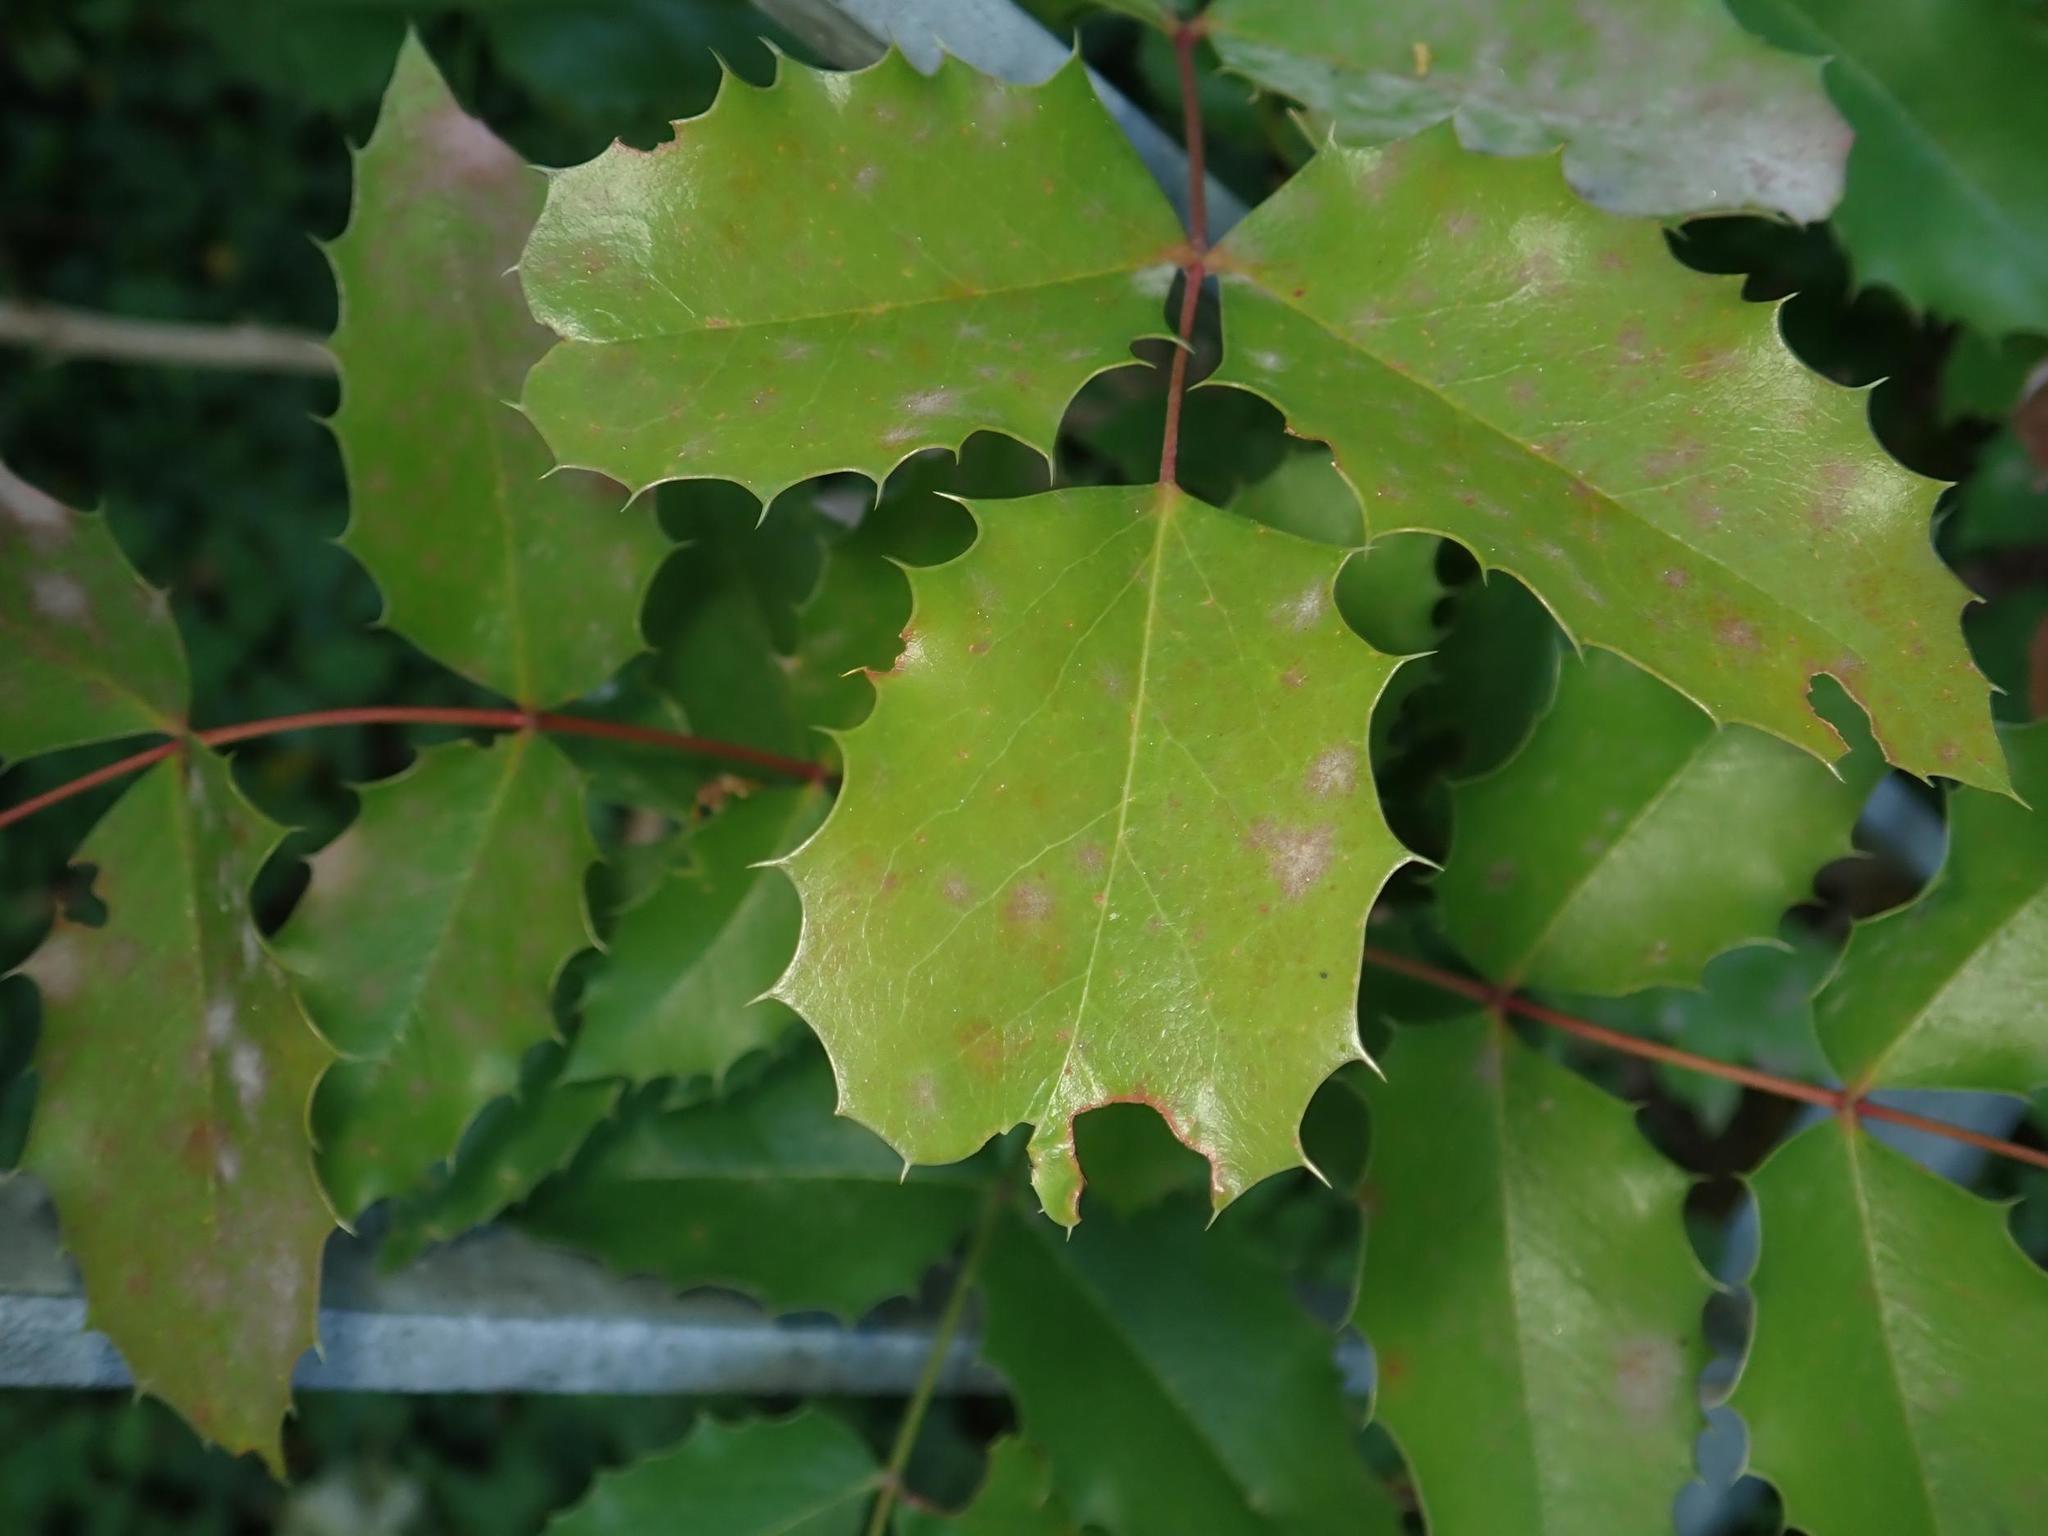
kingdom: Plantae
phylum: Tracheophyta
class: Magnoliopsida
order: Ranunculales
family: Berberidaceae
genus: Mahonia
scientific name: Mahonia aquifolium
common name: Oregon-grape
